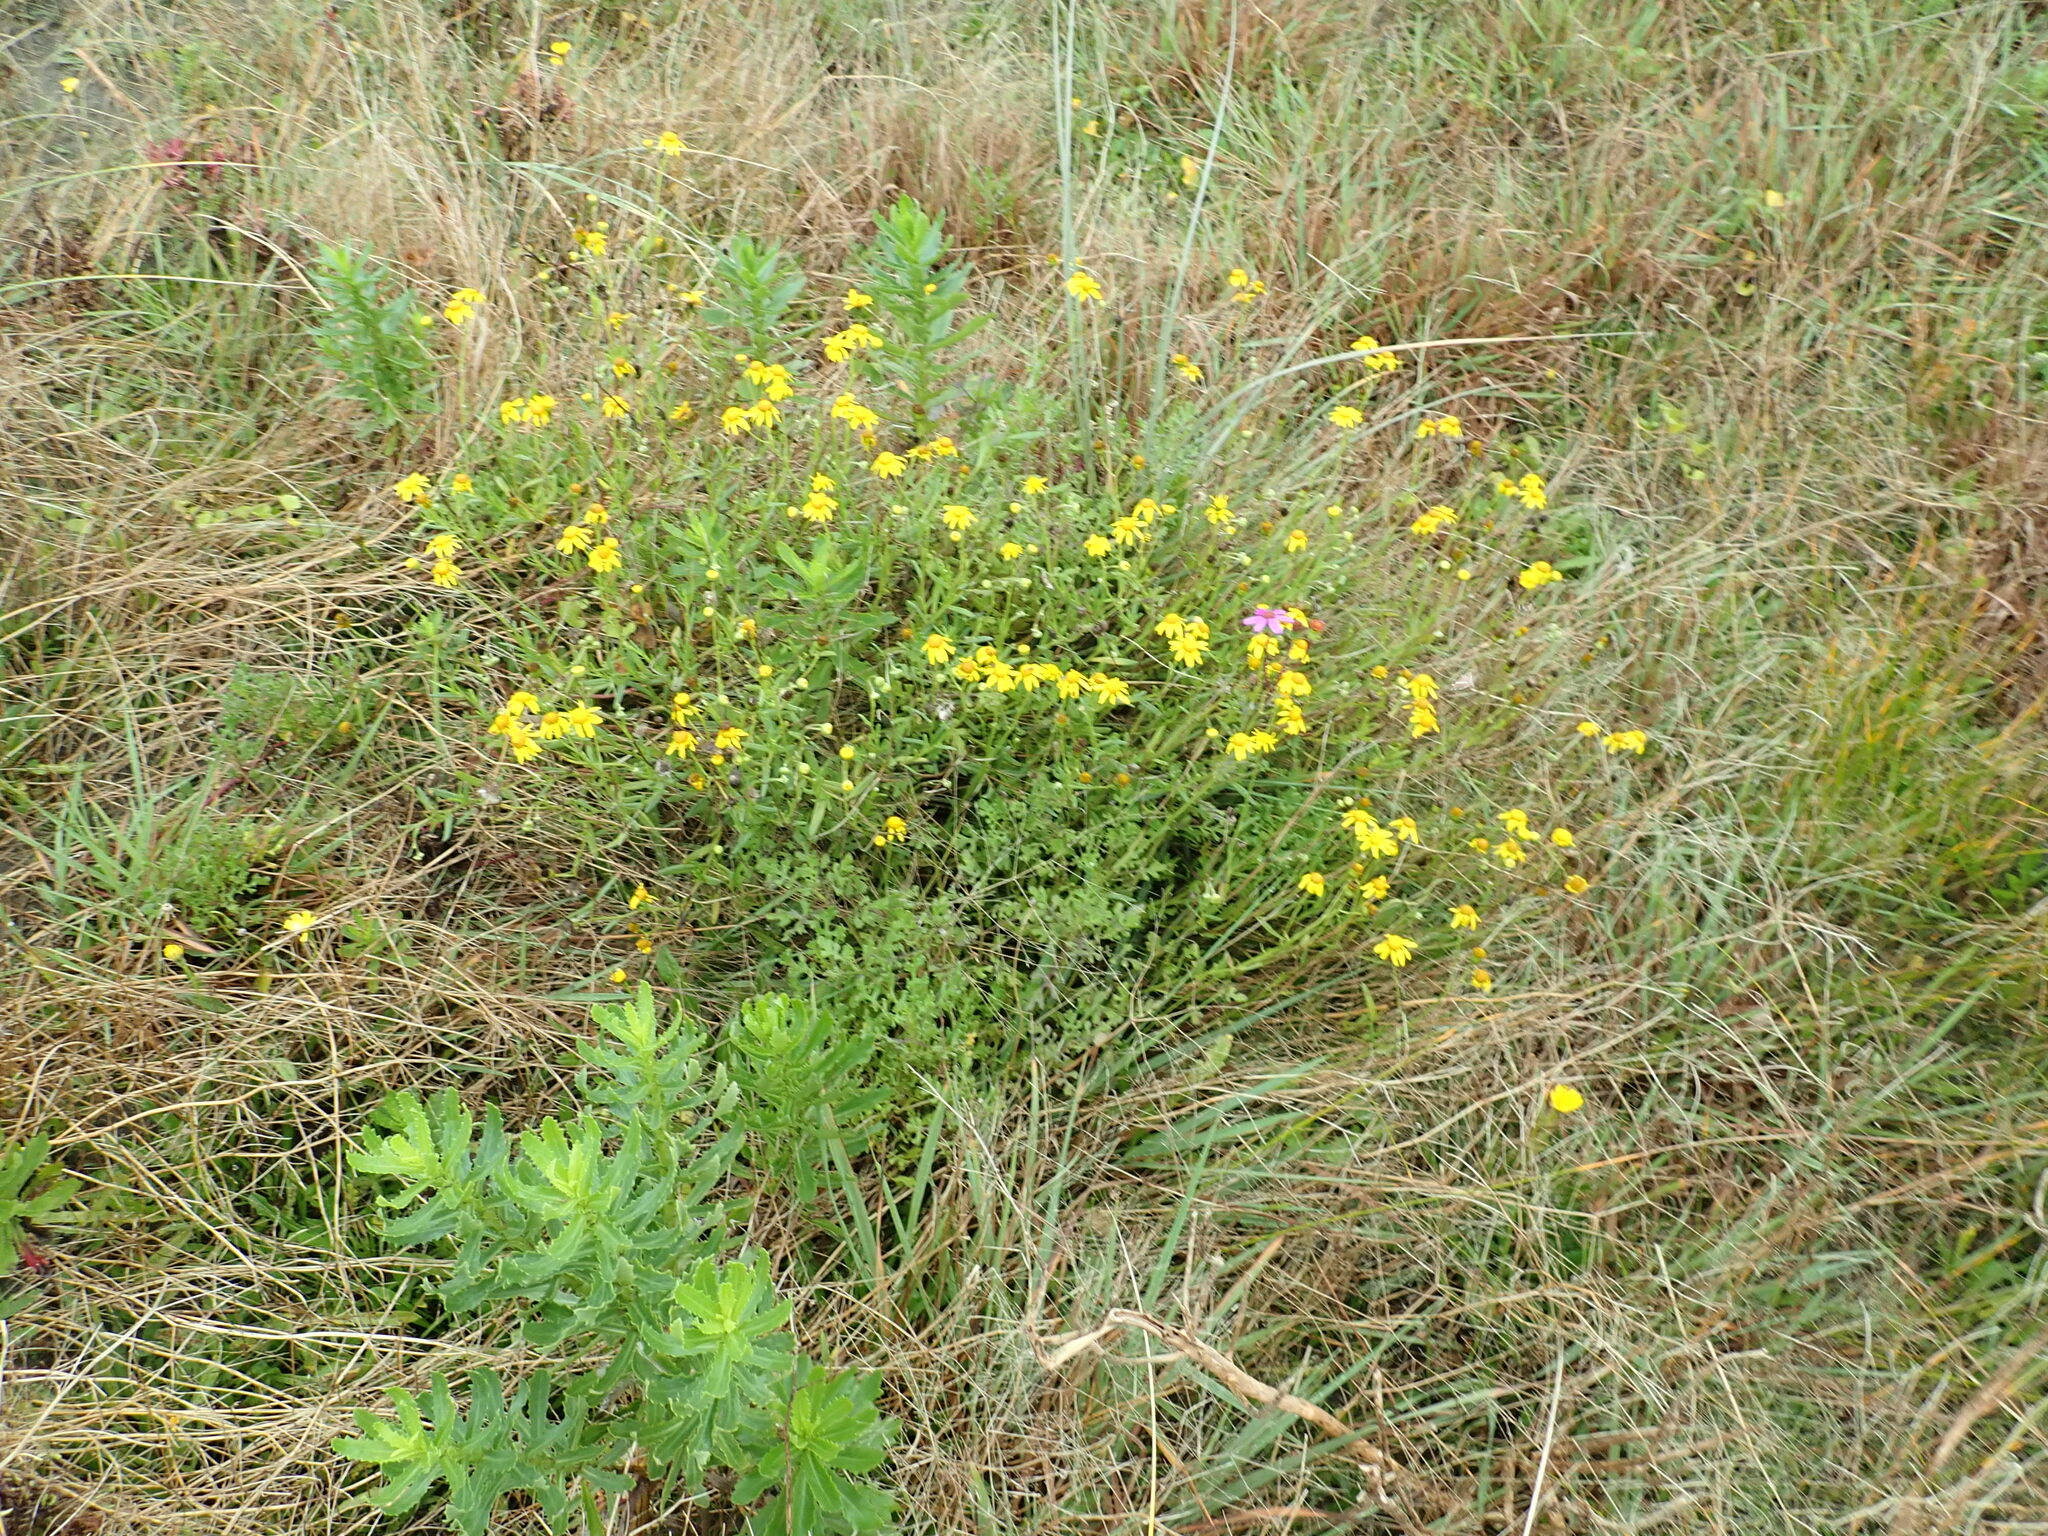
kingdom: Plantae
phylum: Tracheophyta
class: Magnoliopsida
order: Asterales
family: Asteraceae
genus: Senecio
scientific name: Senecio skirrhodon
